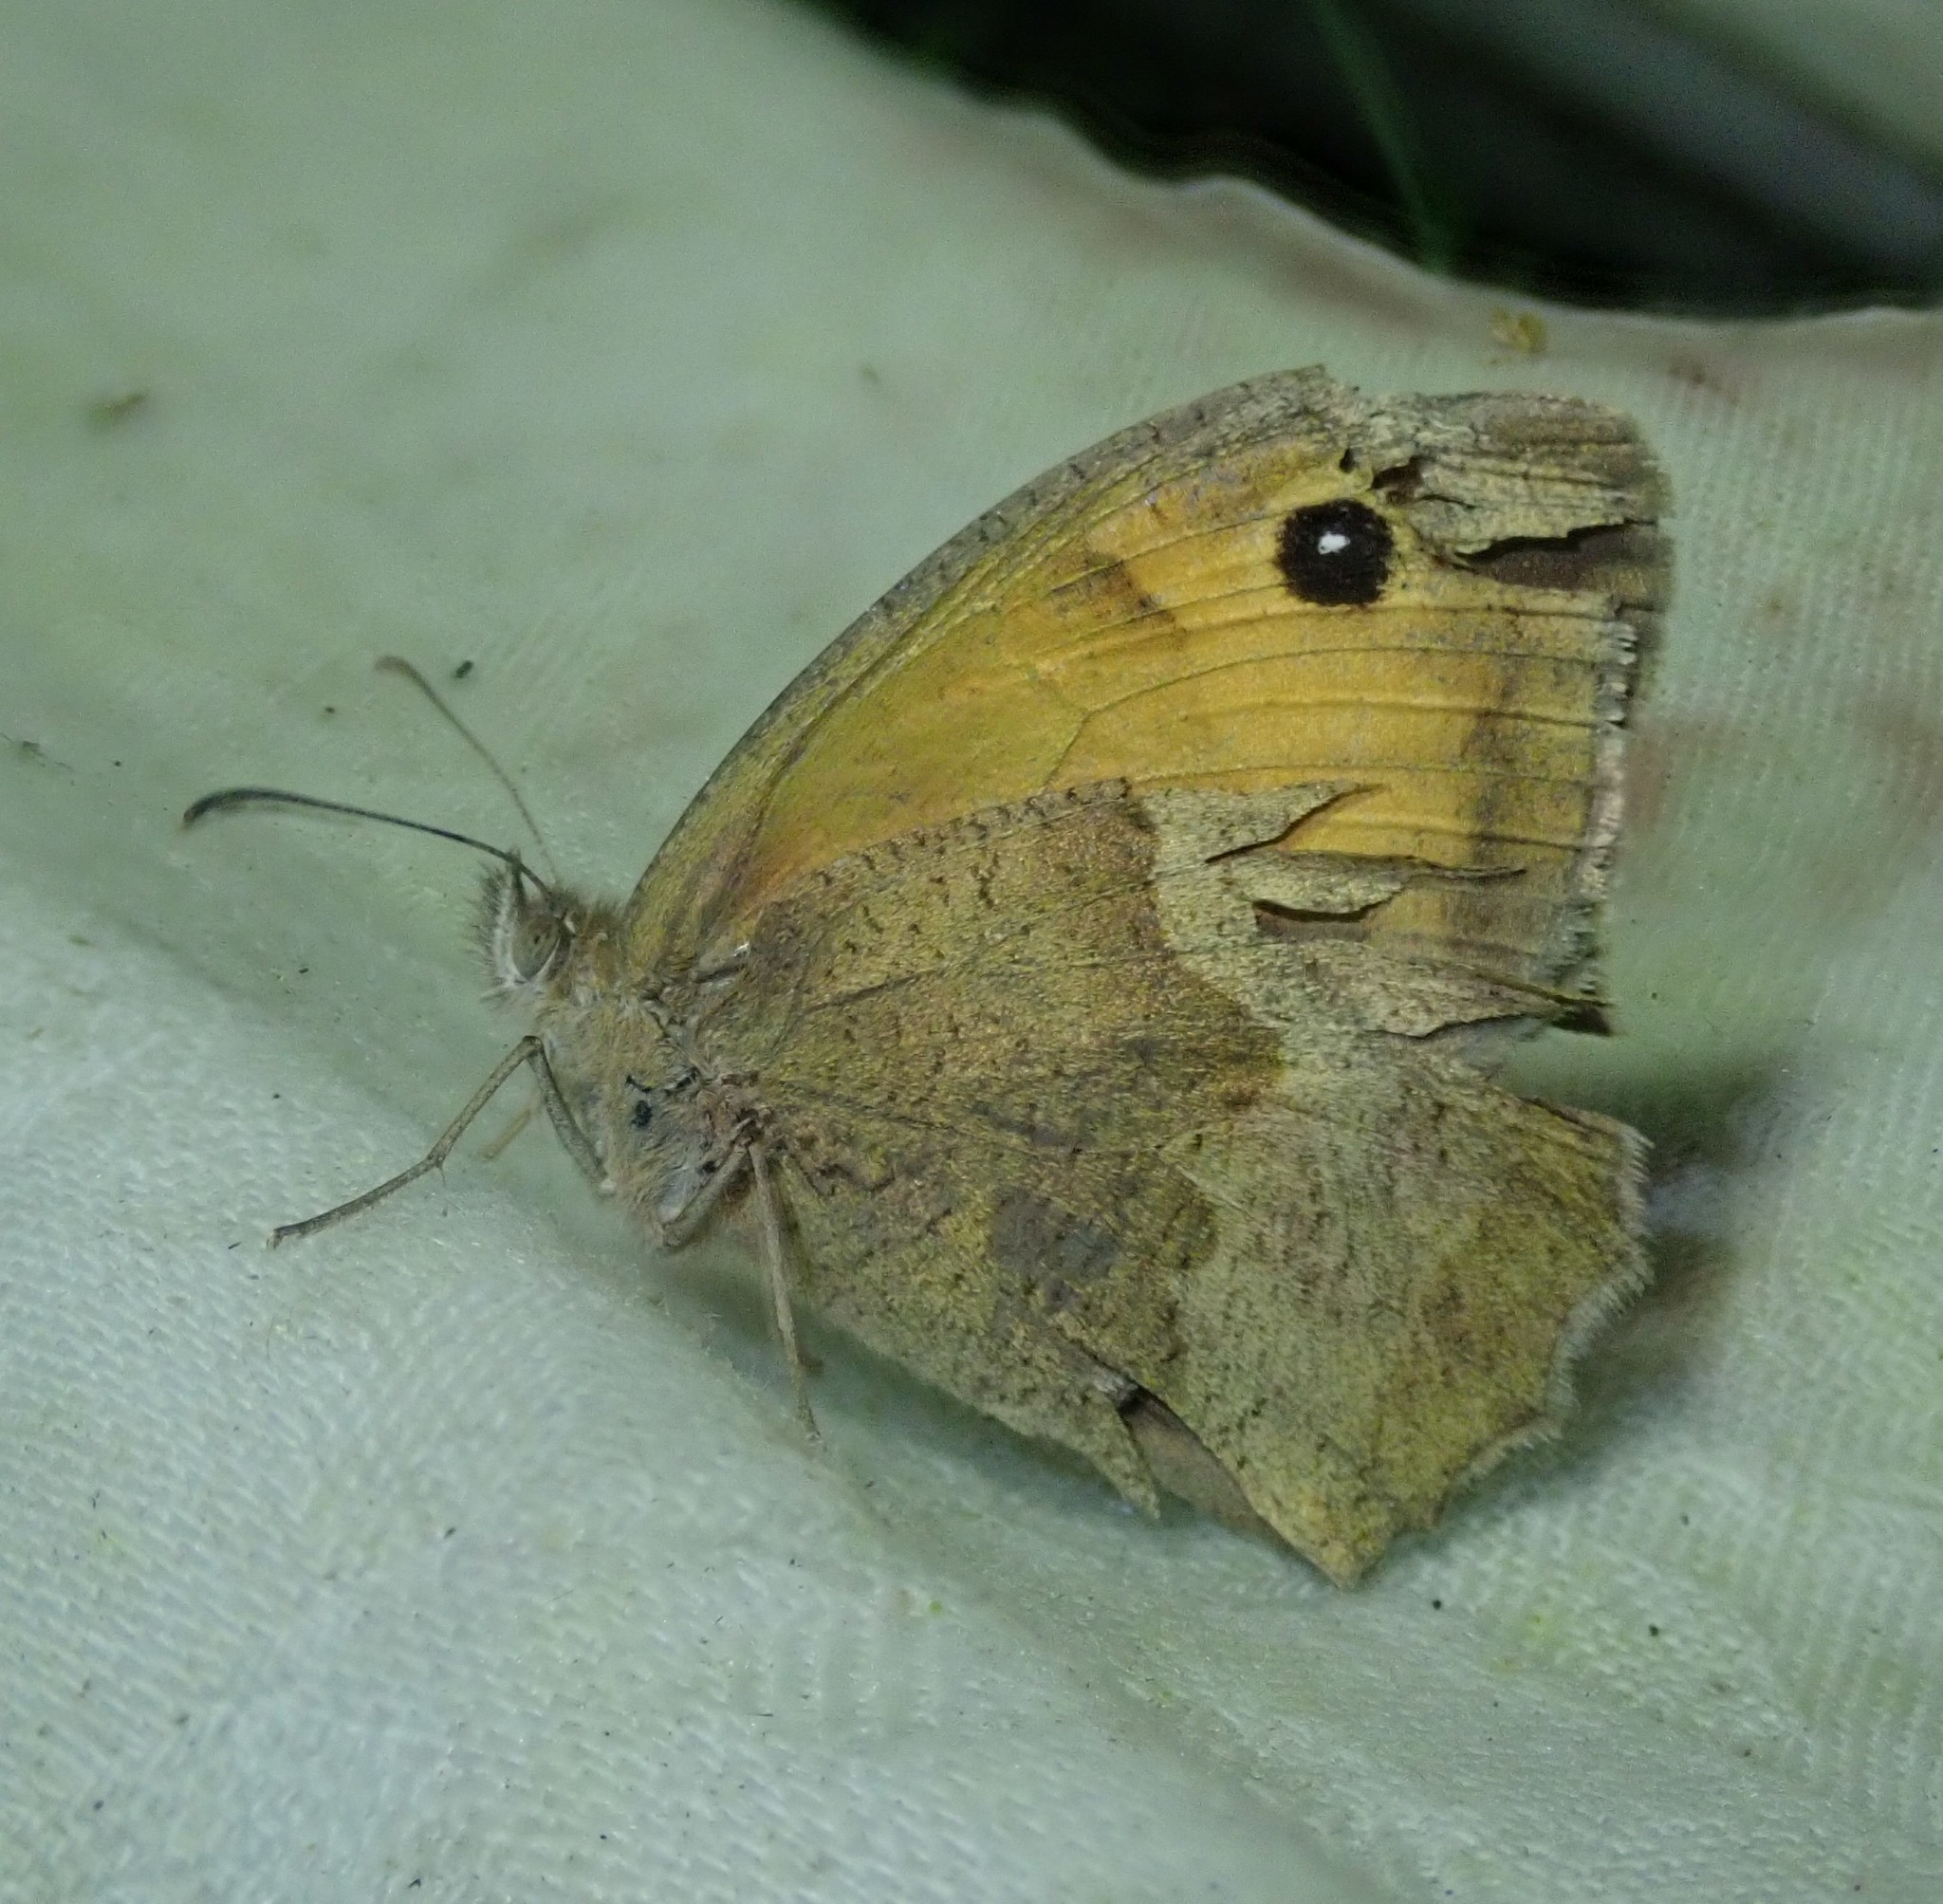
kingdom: Animalia
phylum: Arthropoda
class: Insecta
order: Lepidoptera
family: Nymphalidae
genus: Maniola
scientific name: Maniola jurtina
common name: Meadow brown
